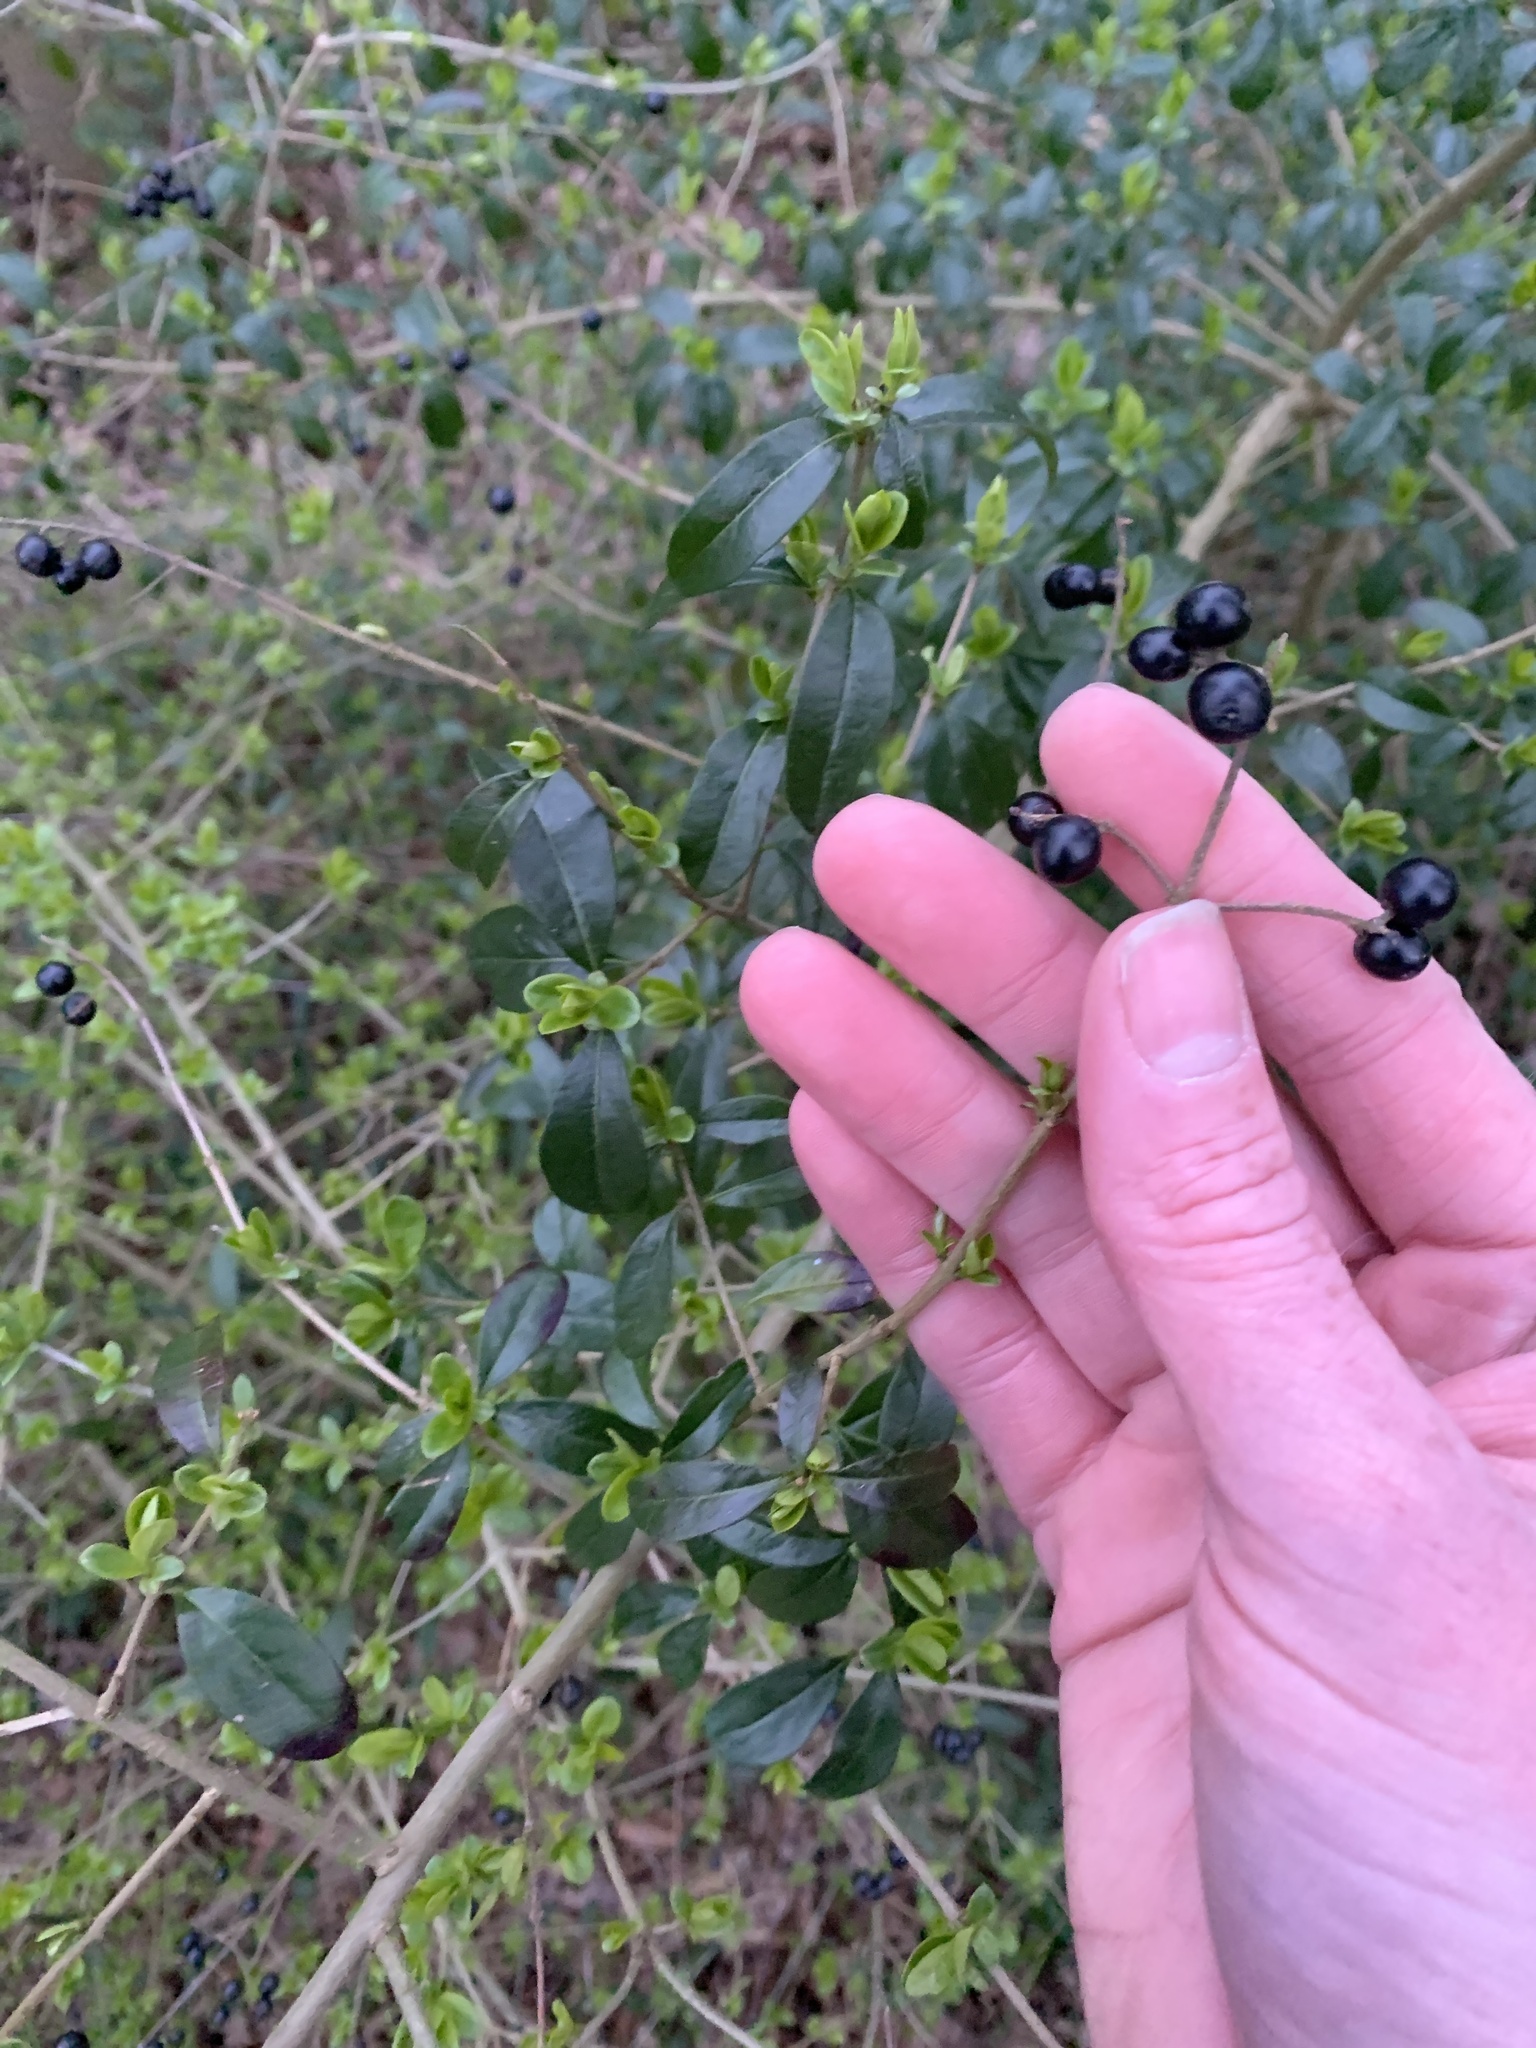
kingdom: Plantae
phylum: Tracheophyta
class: Magnoliopsida
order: Lamiales
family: Oleaceae
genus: Ligustrum
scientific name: Ligustrum vulgare
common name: Wild privet
